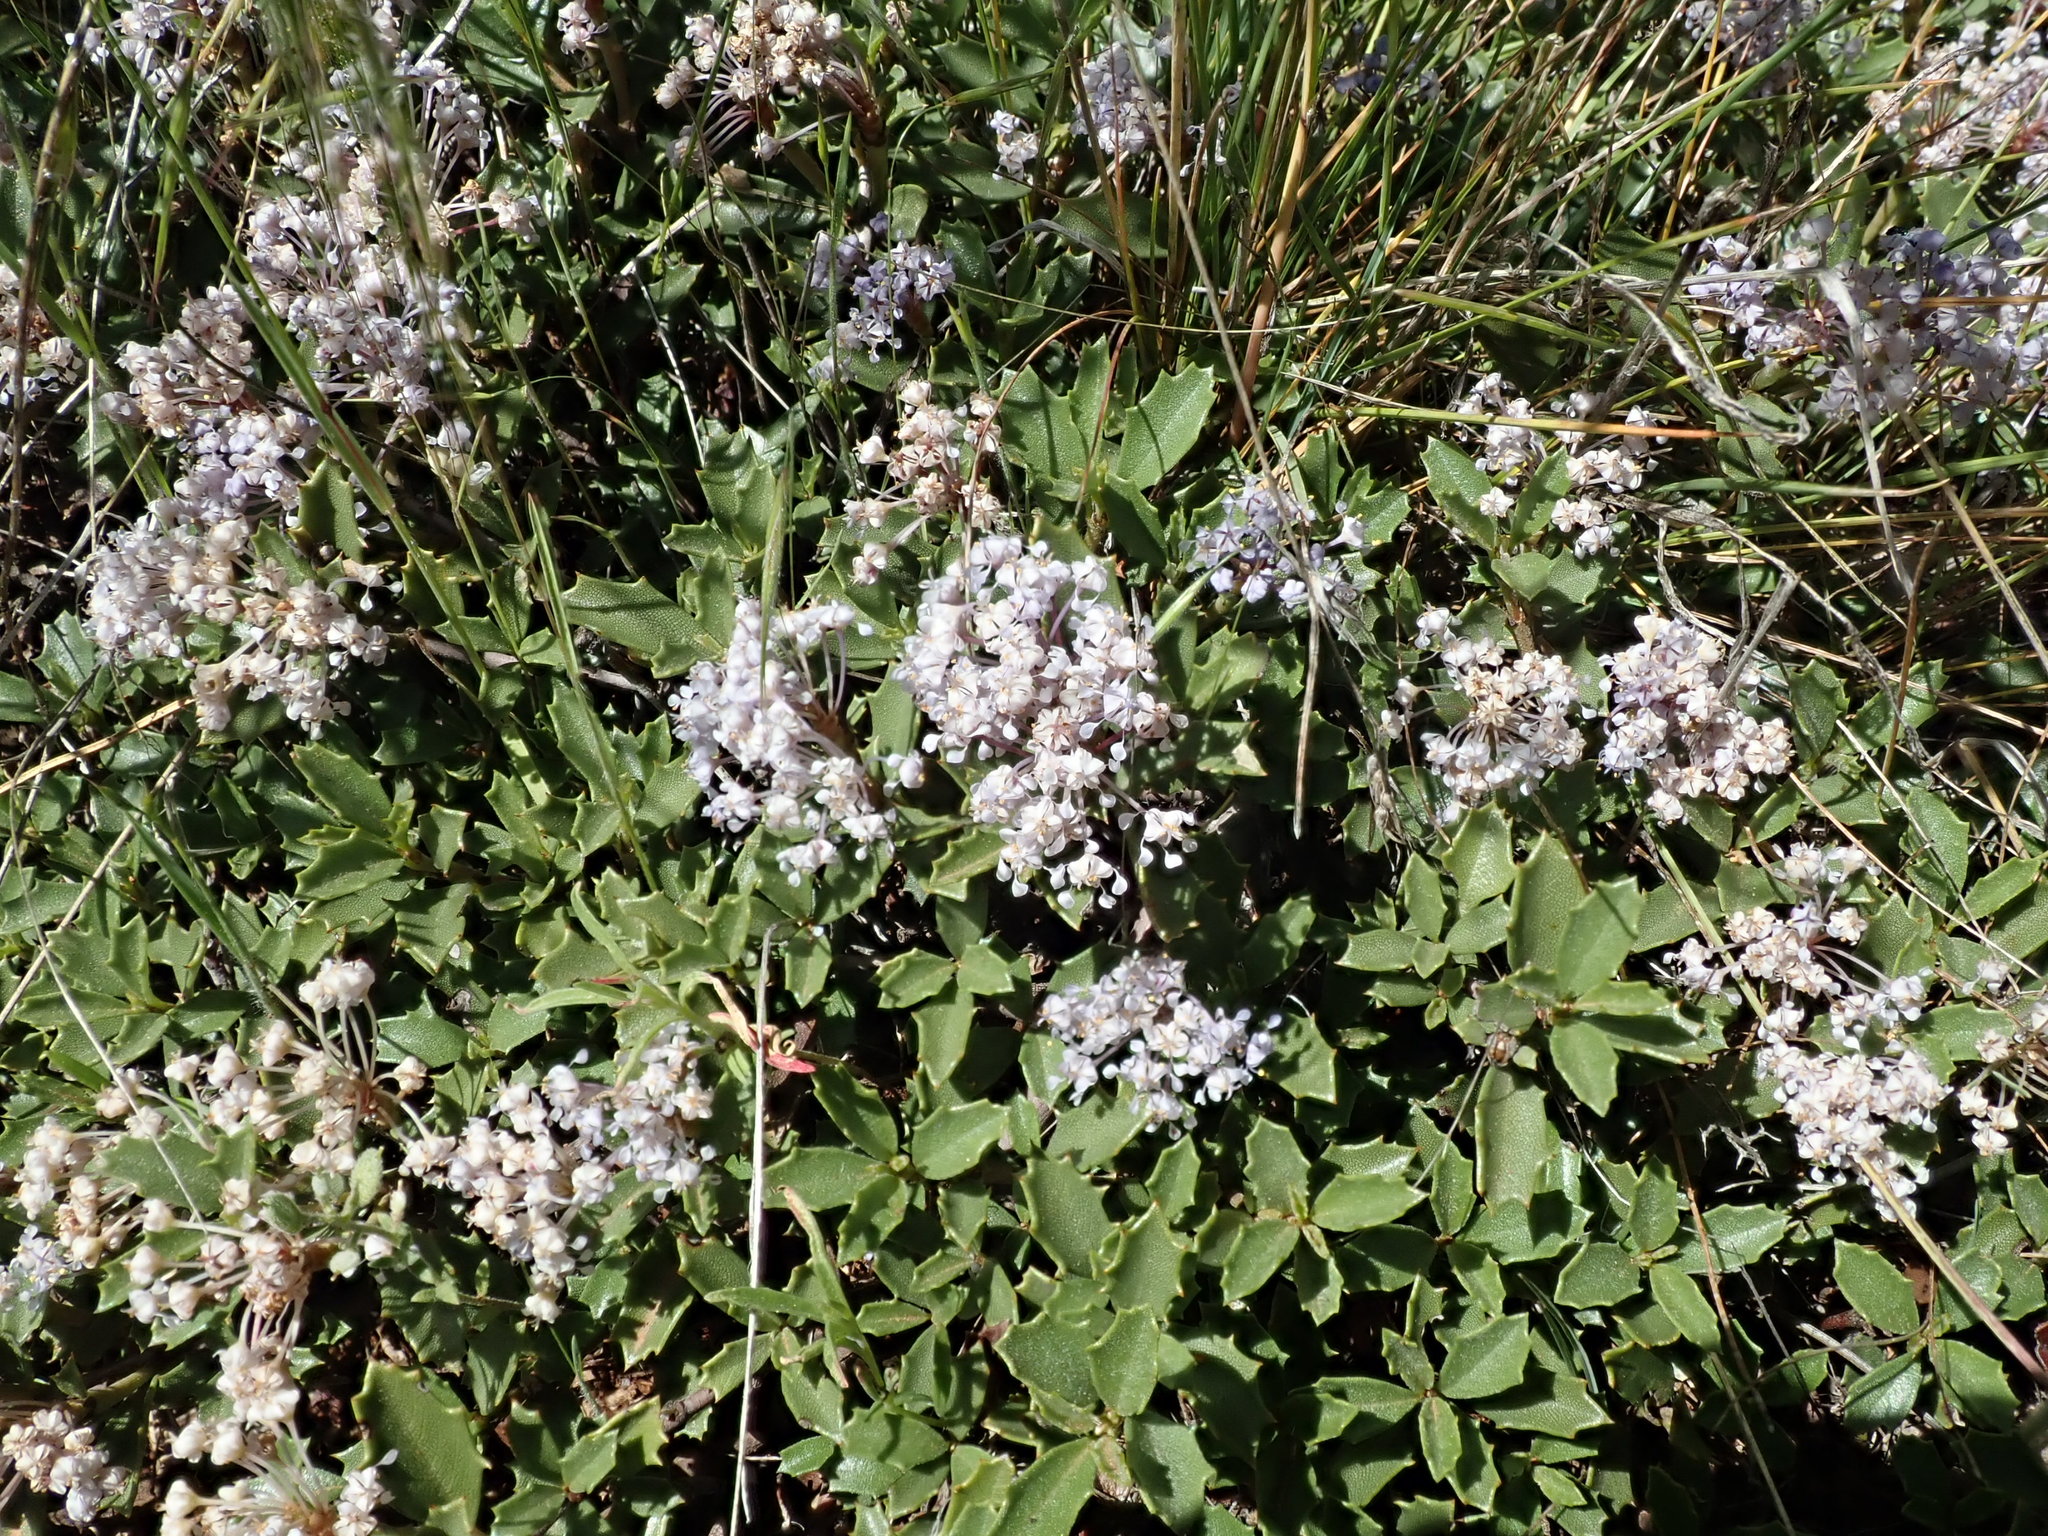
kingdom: Plantae
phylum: Tracheophyta
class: Magnoliopsida
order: Rosales
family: Rhamnaceae
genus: Ceanothus
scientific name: Ceanothus prostratus
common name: Mahala-mat
